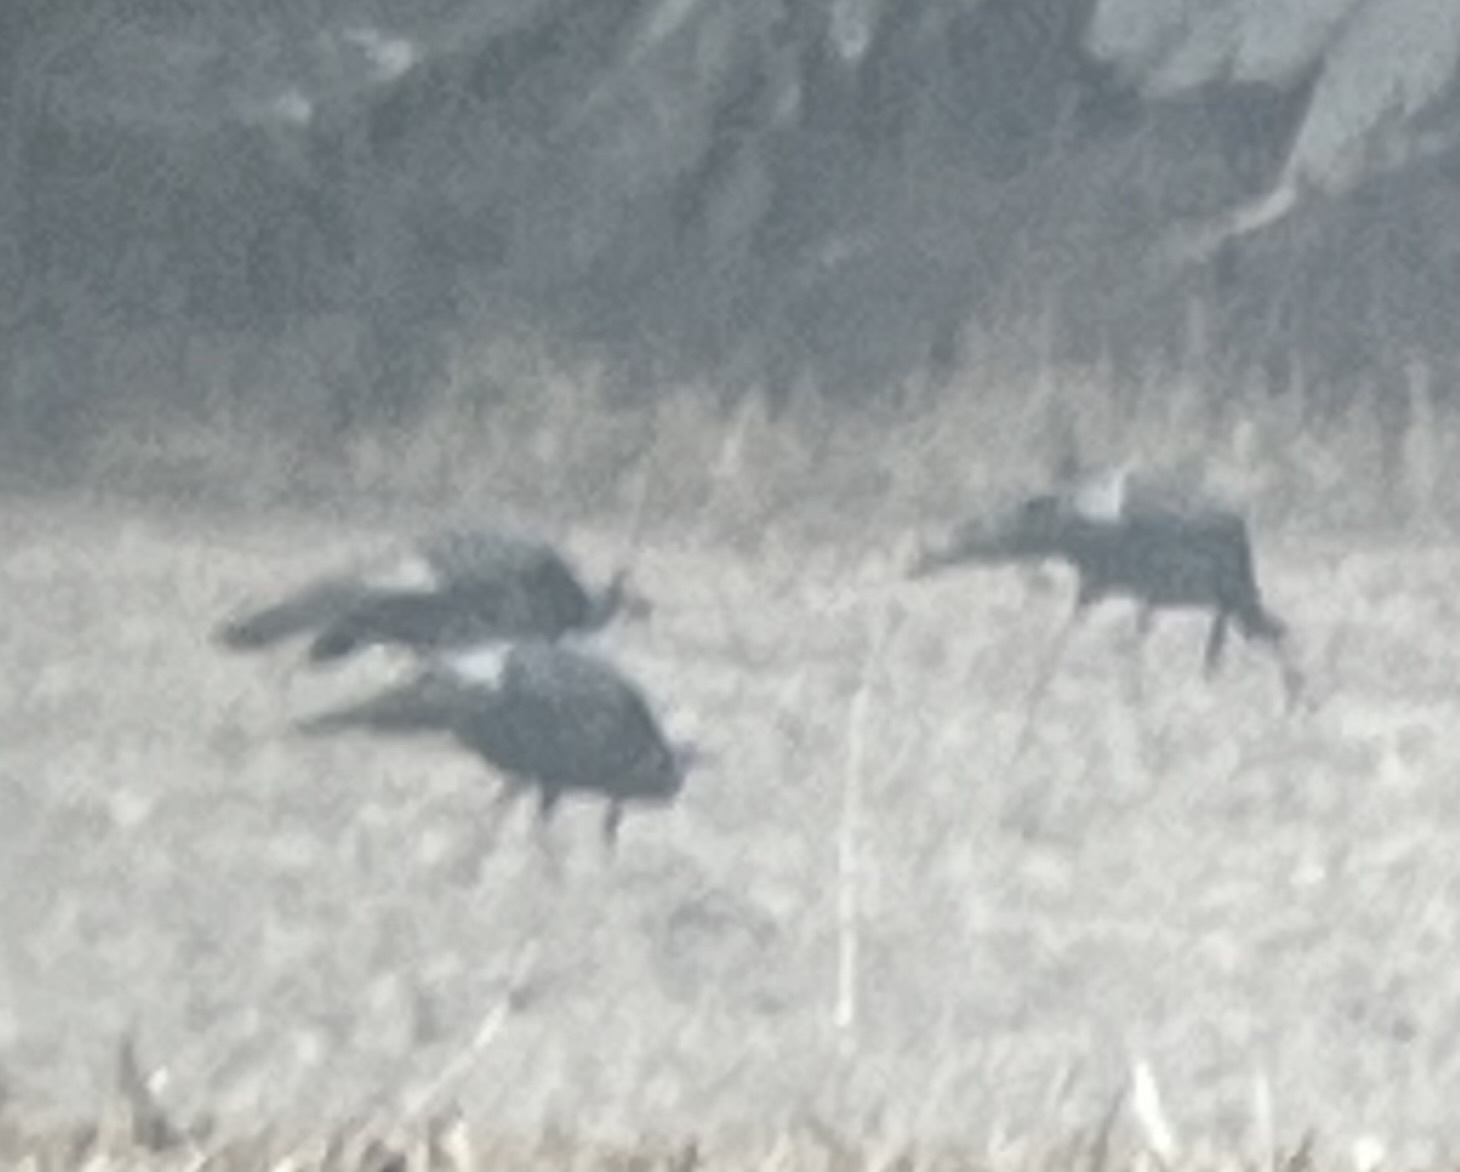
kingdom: Animalia
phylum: Chordata
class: Aves
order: Galliformes
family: Phasianidae
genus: Meleagris
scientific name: Meleagris gallopavo
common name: Wild turkey
